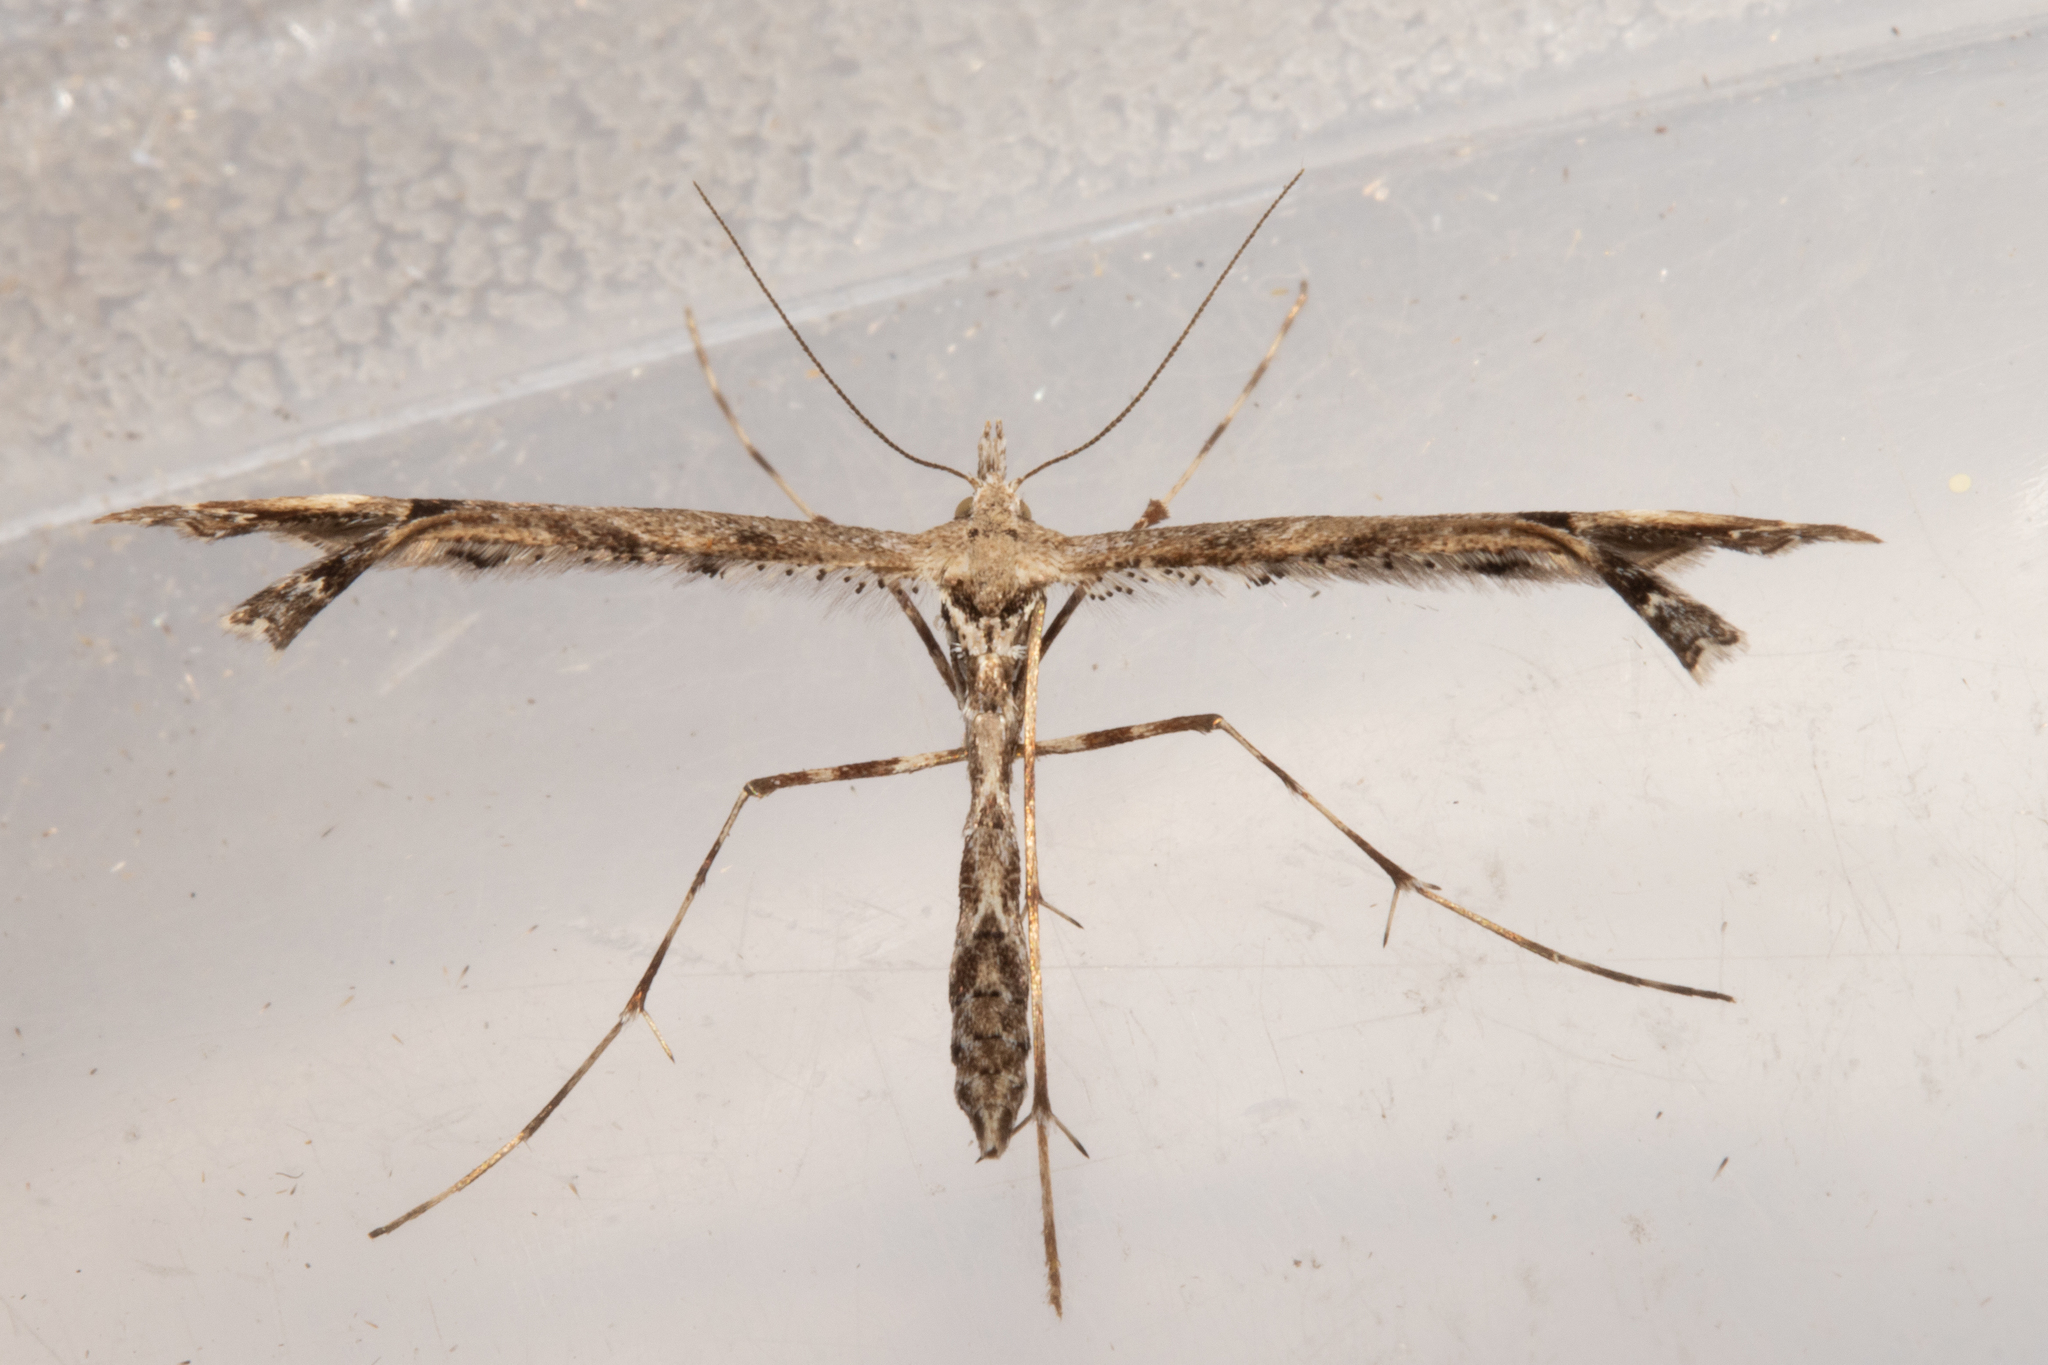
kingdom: Animalia
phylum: Arthropoda
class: Insecta
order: Lepidoptera
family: Pterophoridae
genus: Amblyptilia
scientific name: Amblyptilia repletalis
